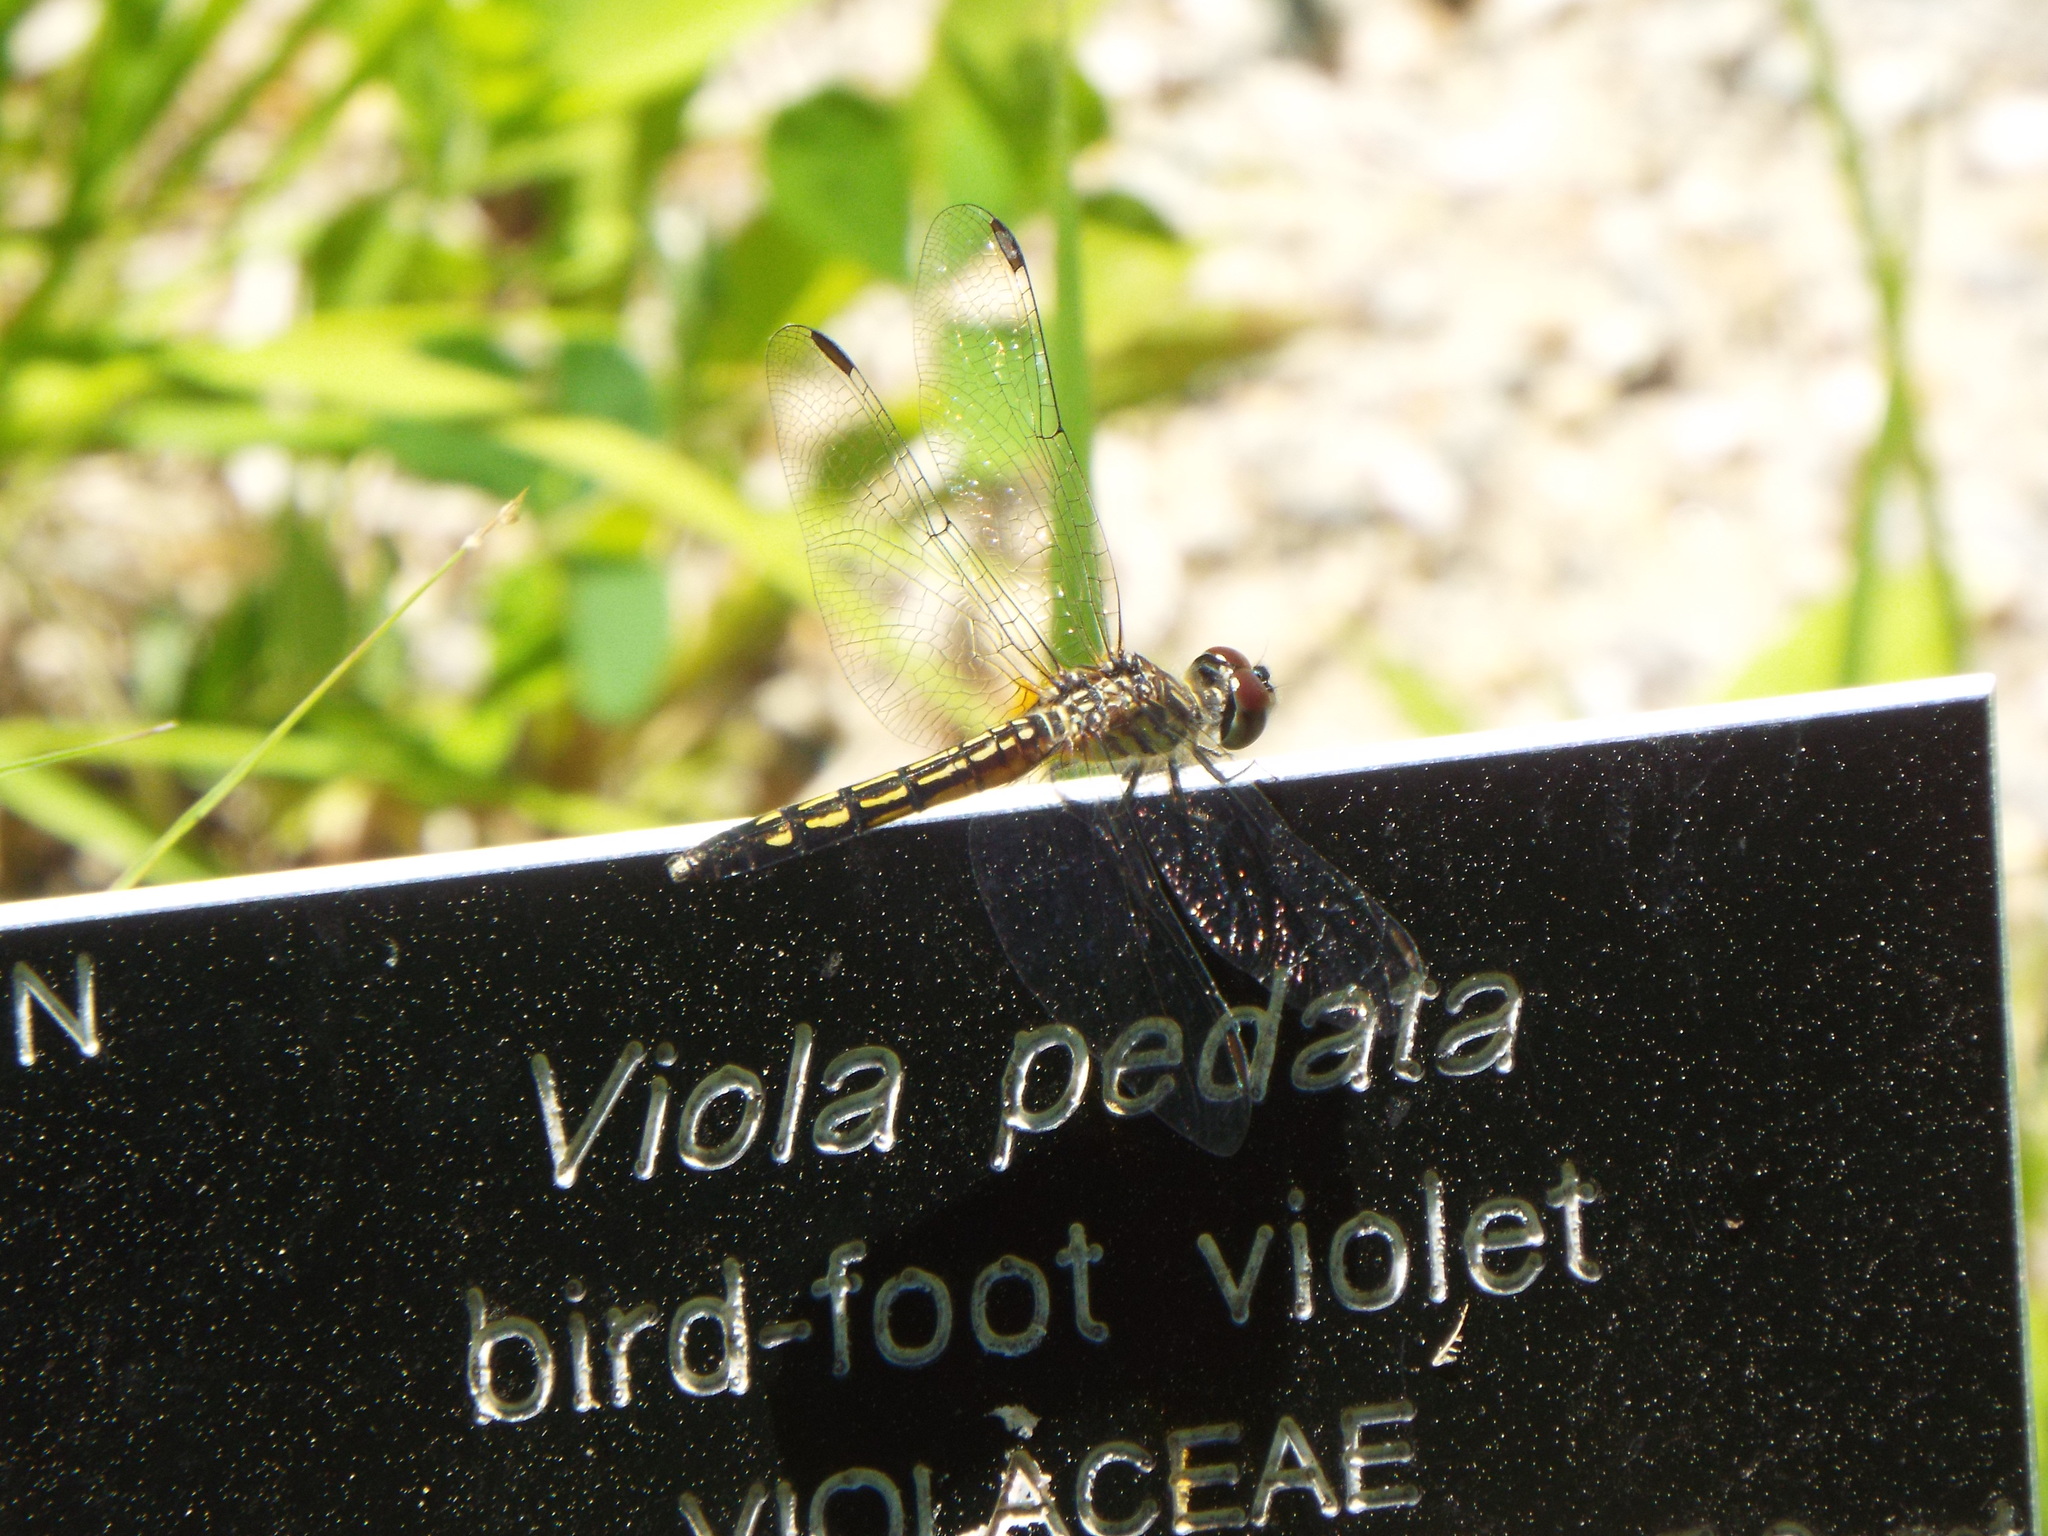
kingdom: Animalia
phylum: Arthropoda
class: Insecta
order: Odonata
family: Libellulidae
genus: Pachydiplax
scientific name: Pachydiplax longipennis
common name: Blue dasher
